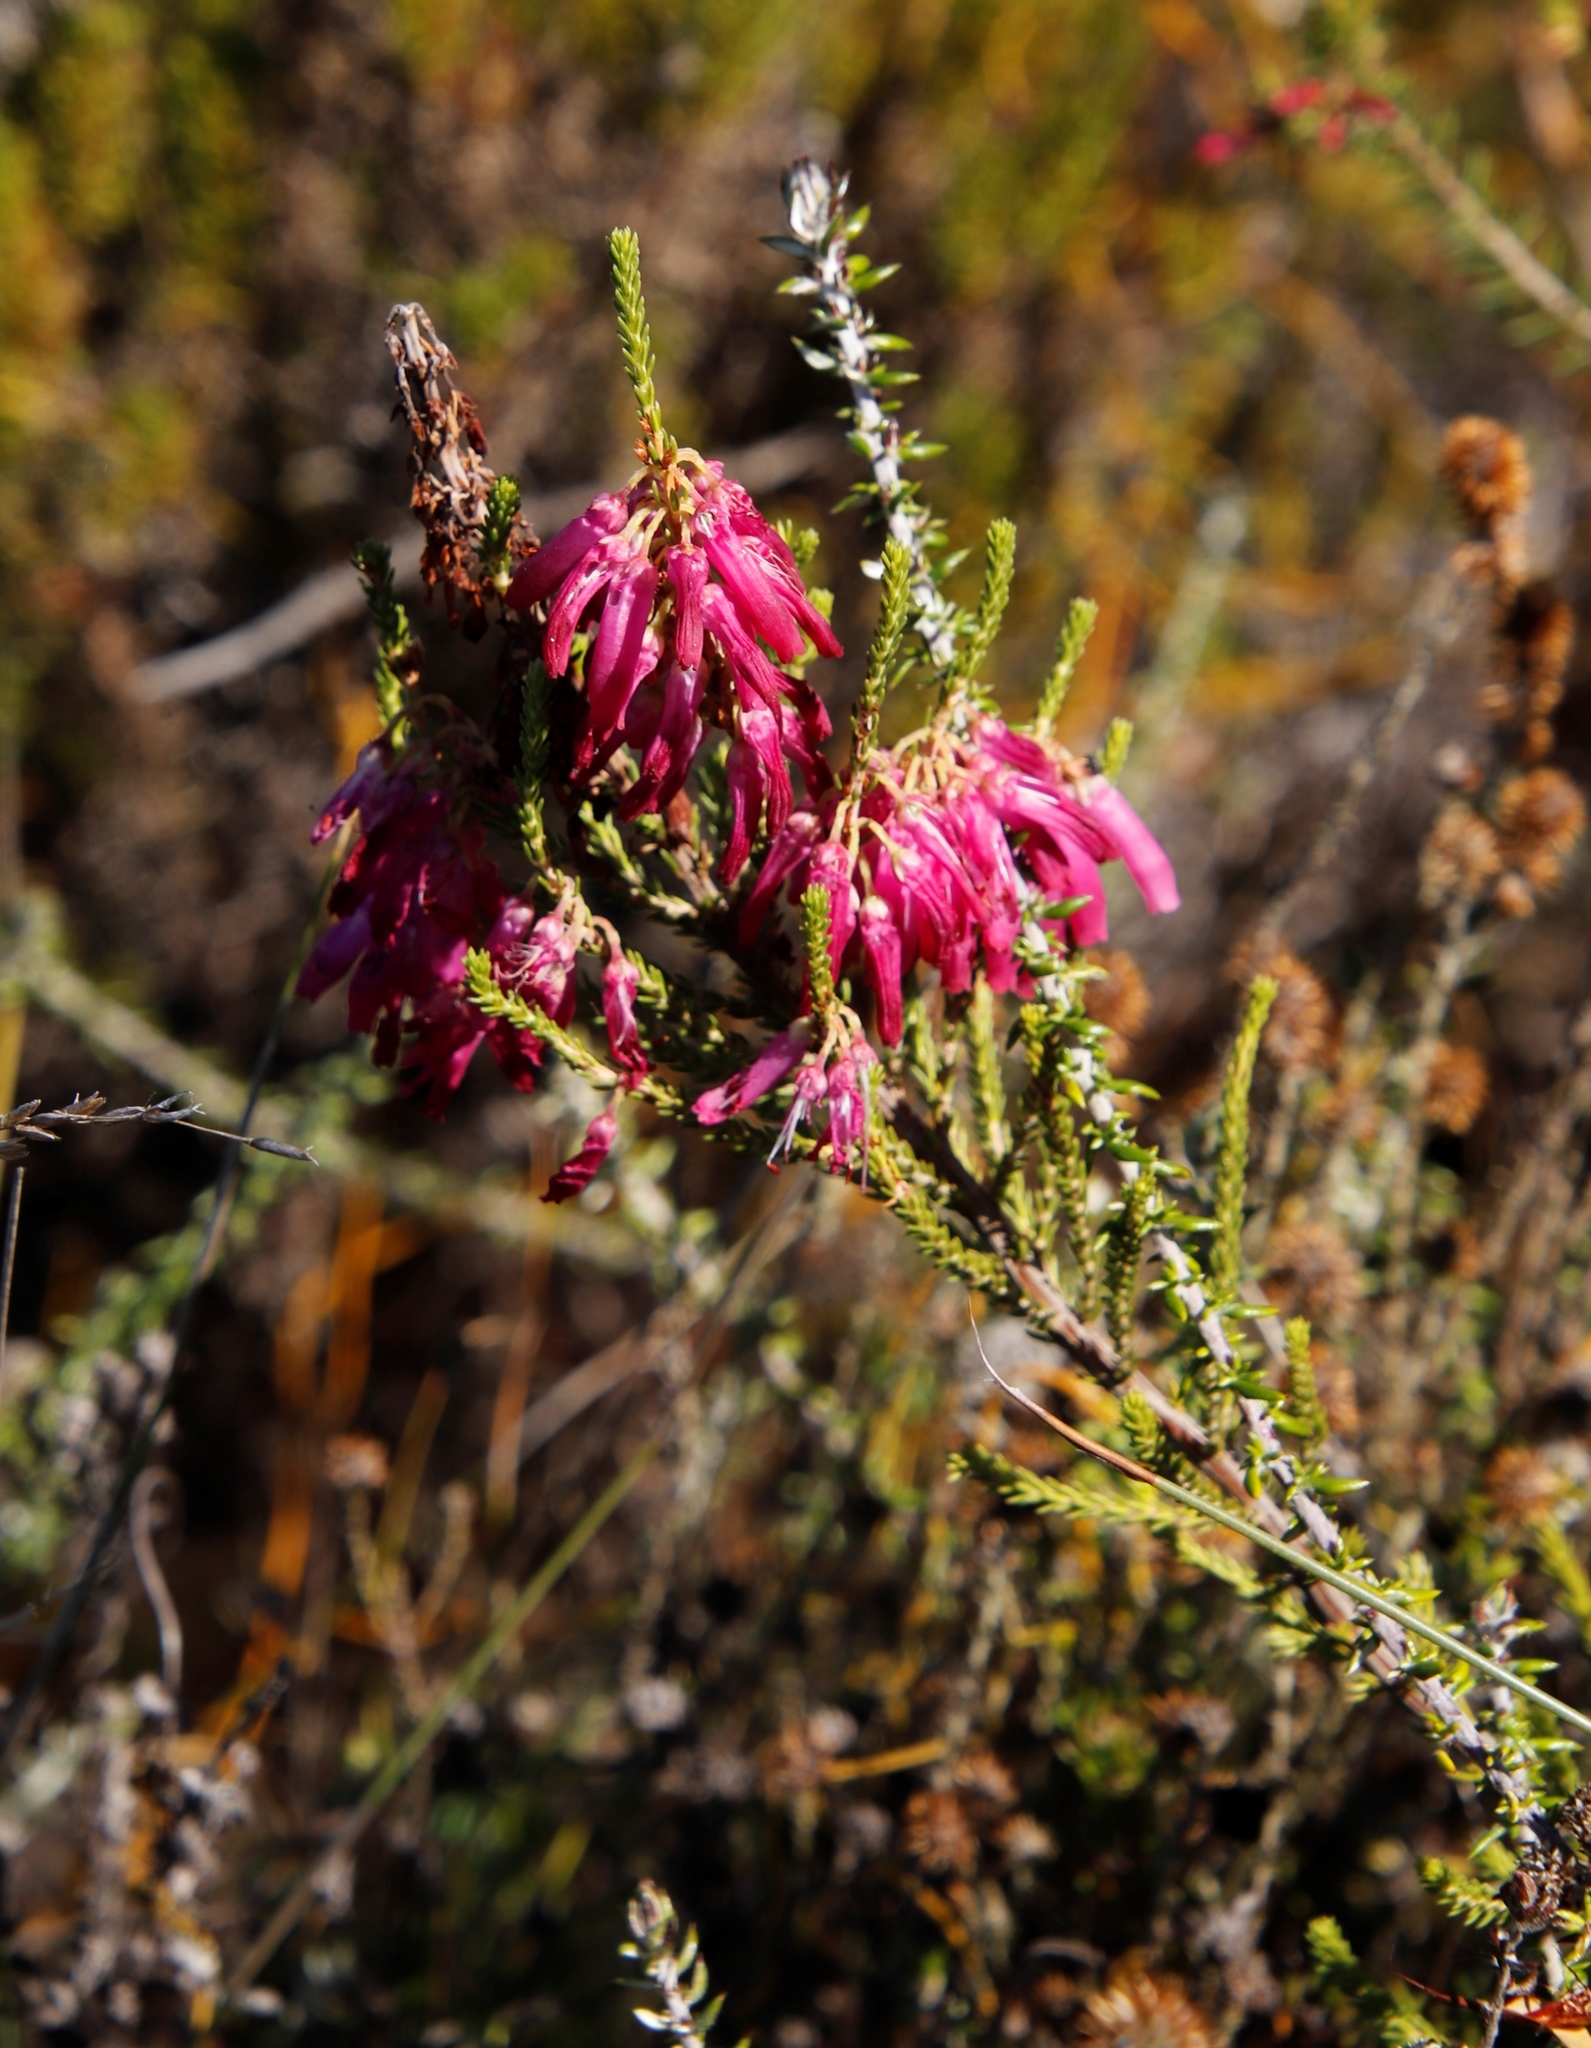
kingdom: Plantae
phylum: Tracheophyta
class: Magnoliopsida
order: Ericales
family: Ericaceae
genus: Erica
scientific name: Erica mammosa
